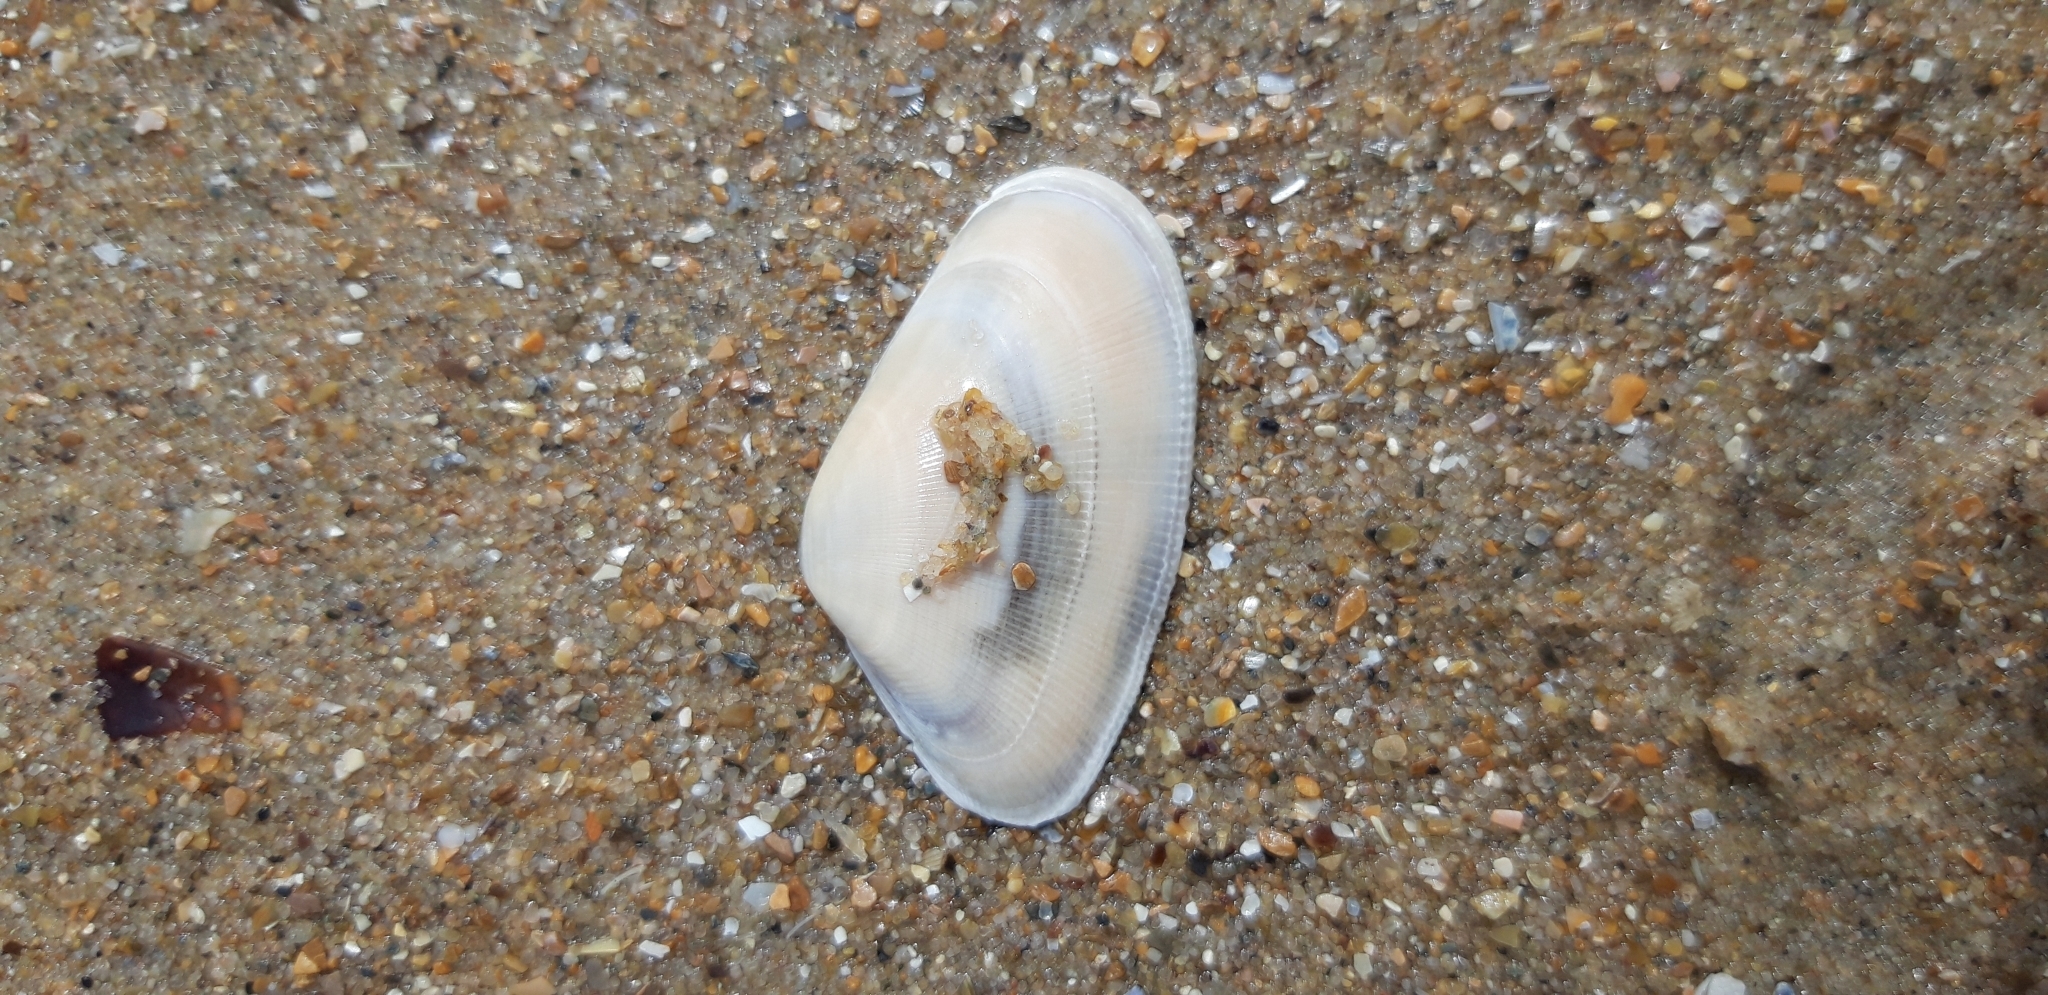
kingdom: Animalia
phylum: Mollusca
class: Bivalvia
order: Cardiida
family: Donacidae
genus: Donax
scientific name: Donax vittatus
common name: Banded wedge-shell
